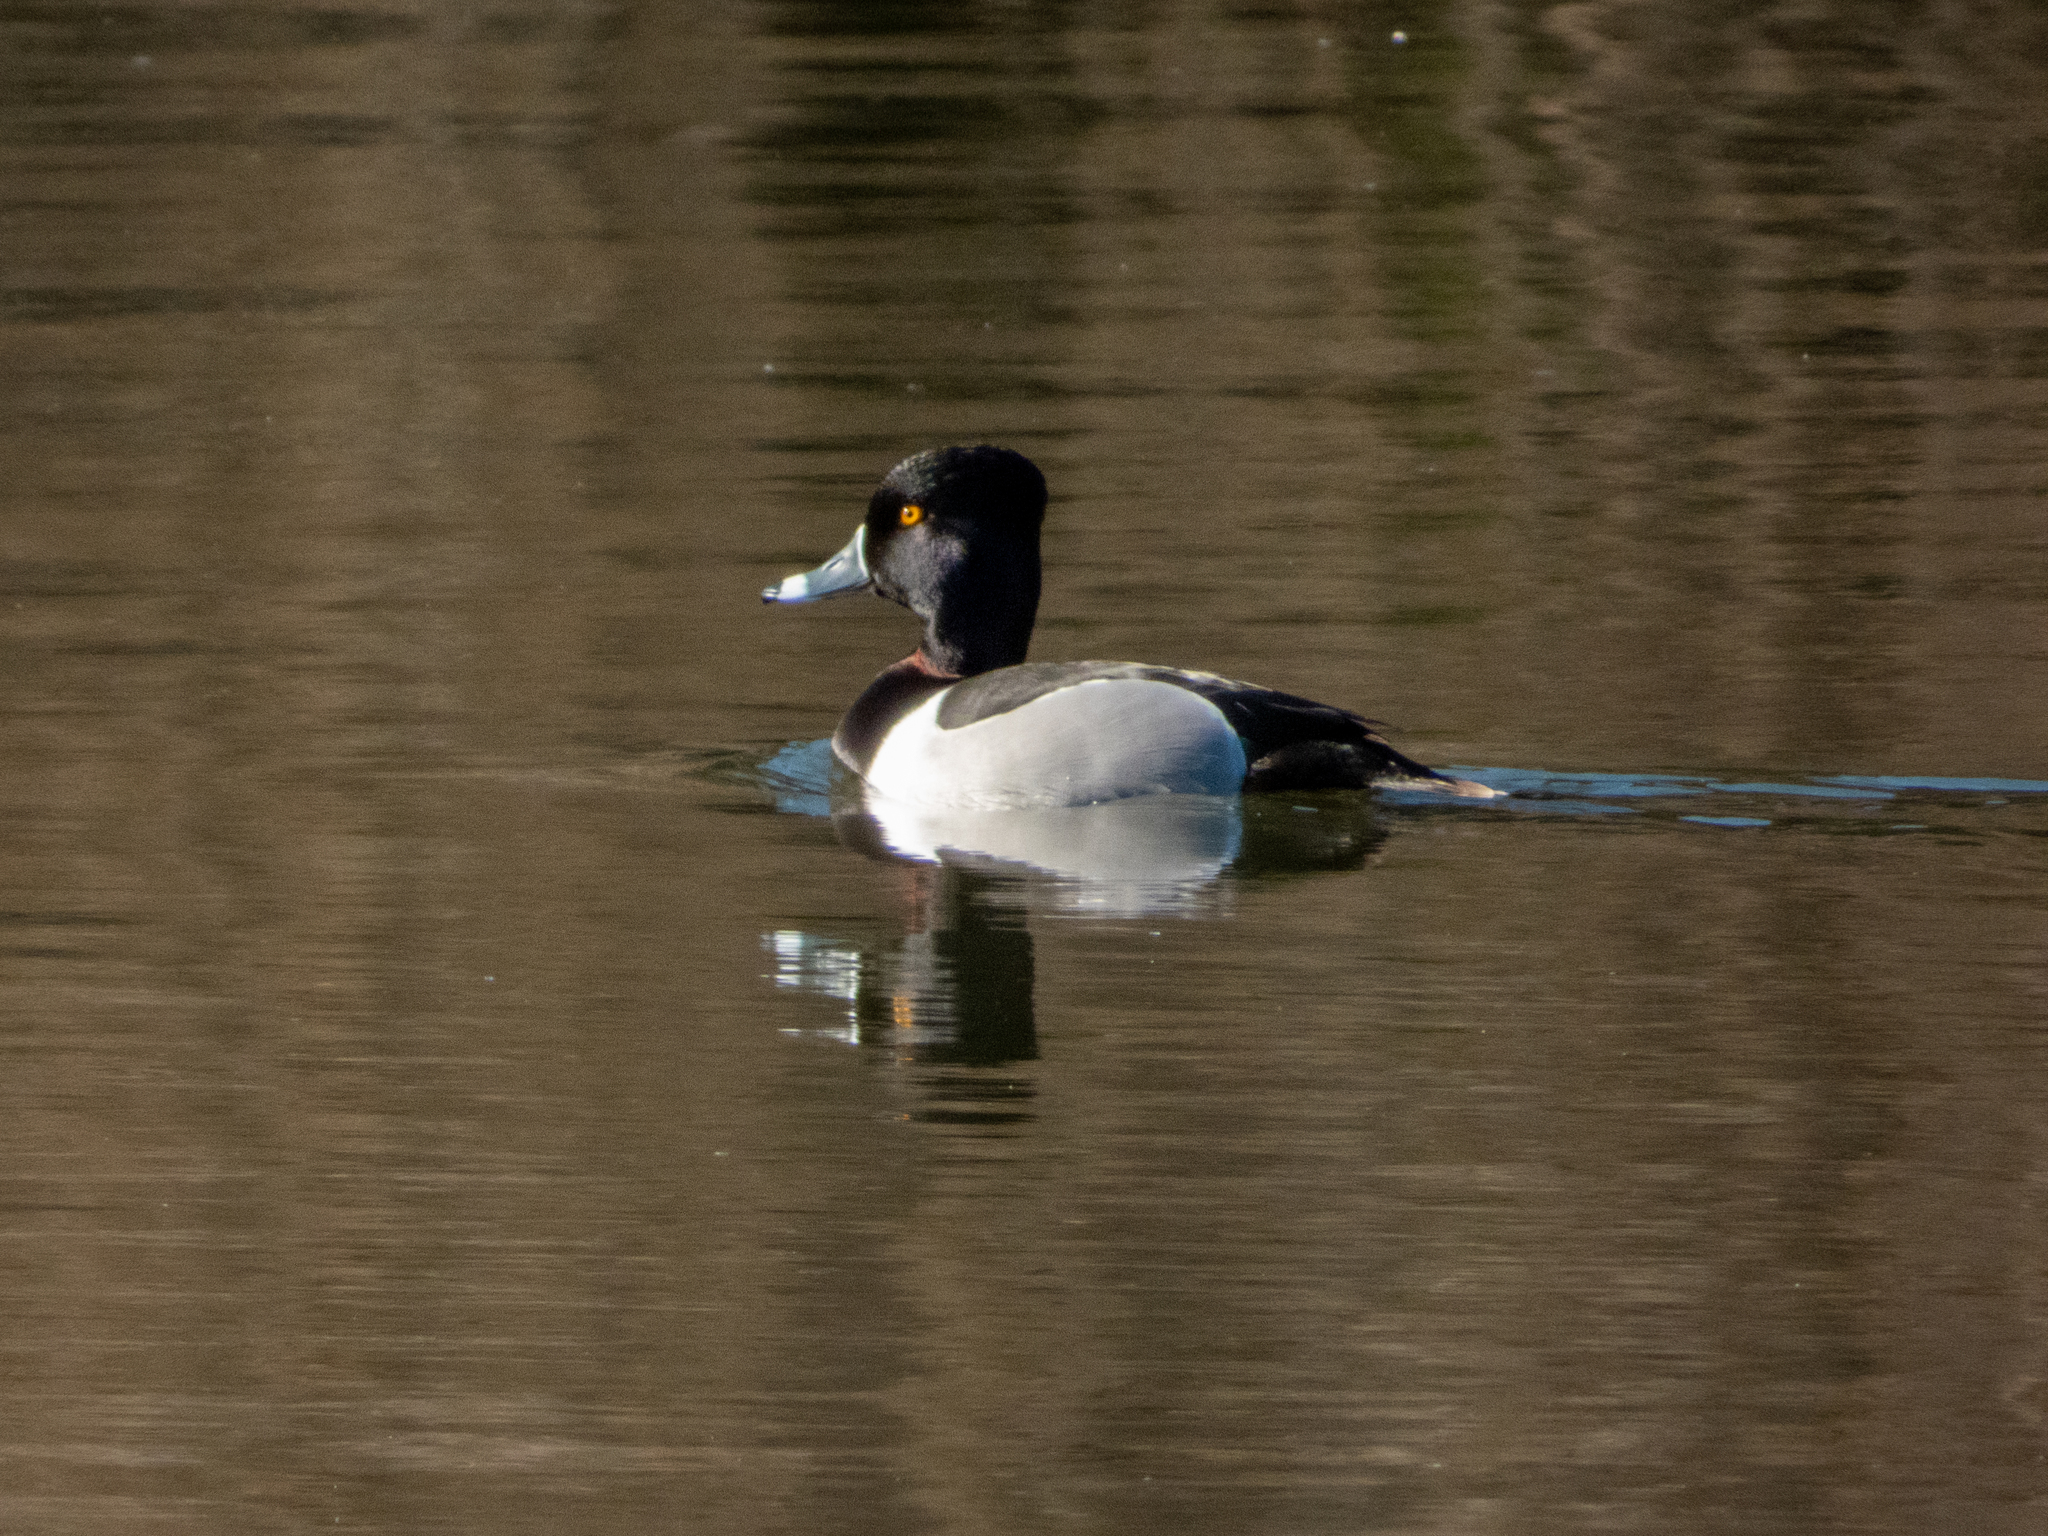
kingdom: Animalia
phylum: Chordata
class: Aves
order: Anseriformes
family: Anatidae
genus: Aythya
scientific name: Aythya collaris
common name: Ring-necked duck
